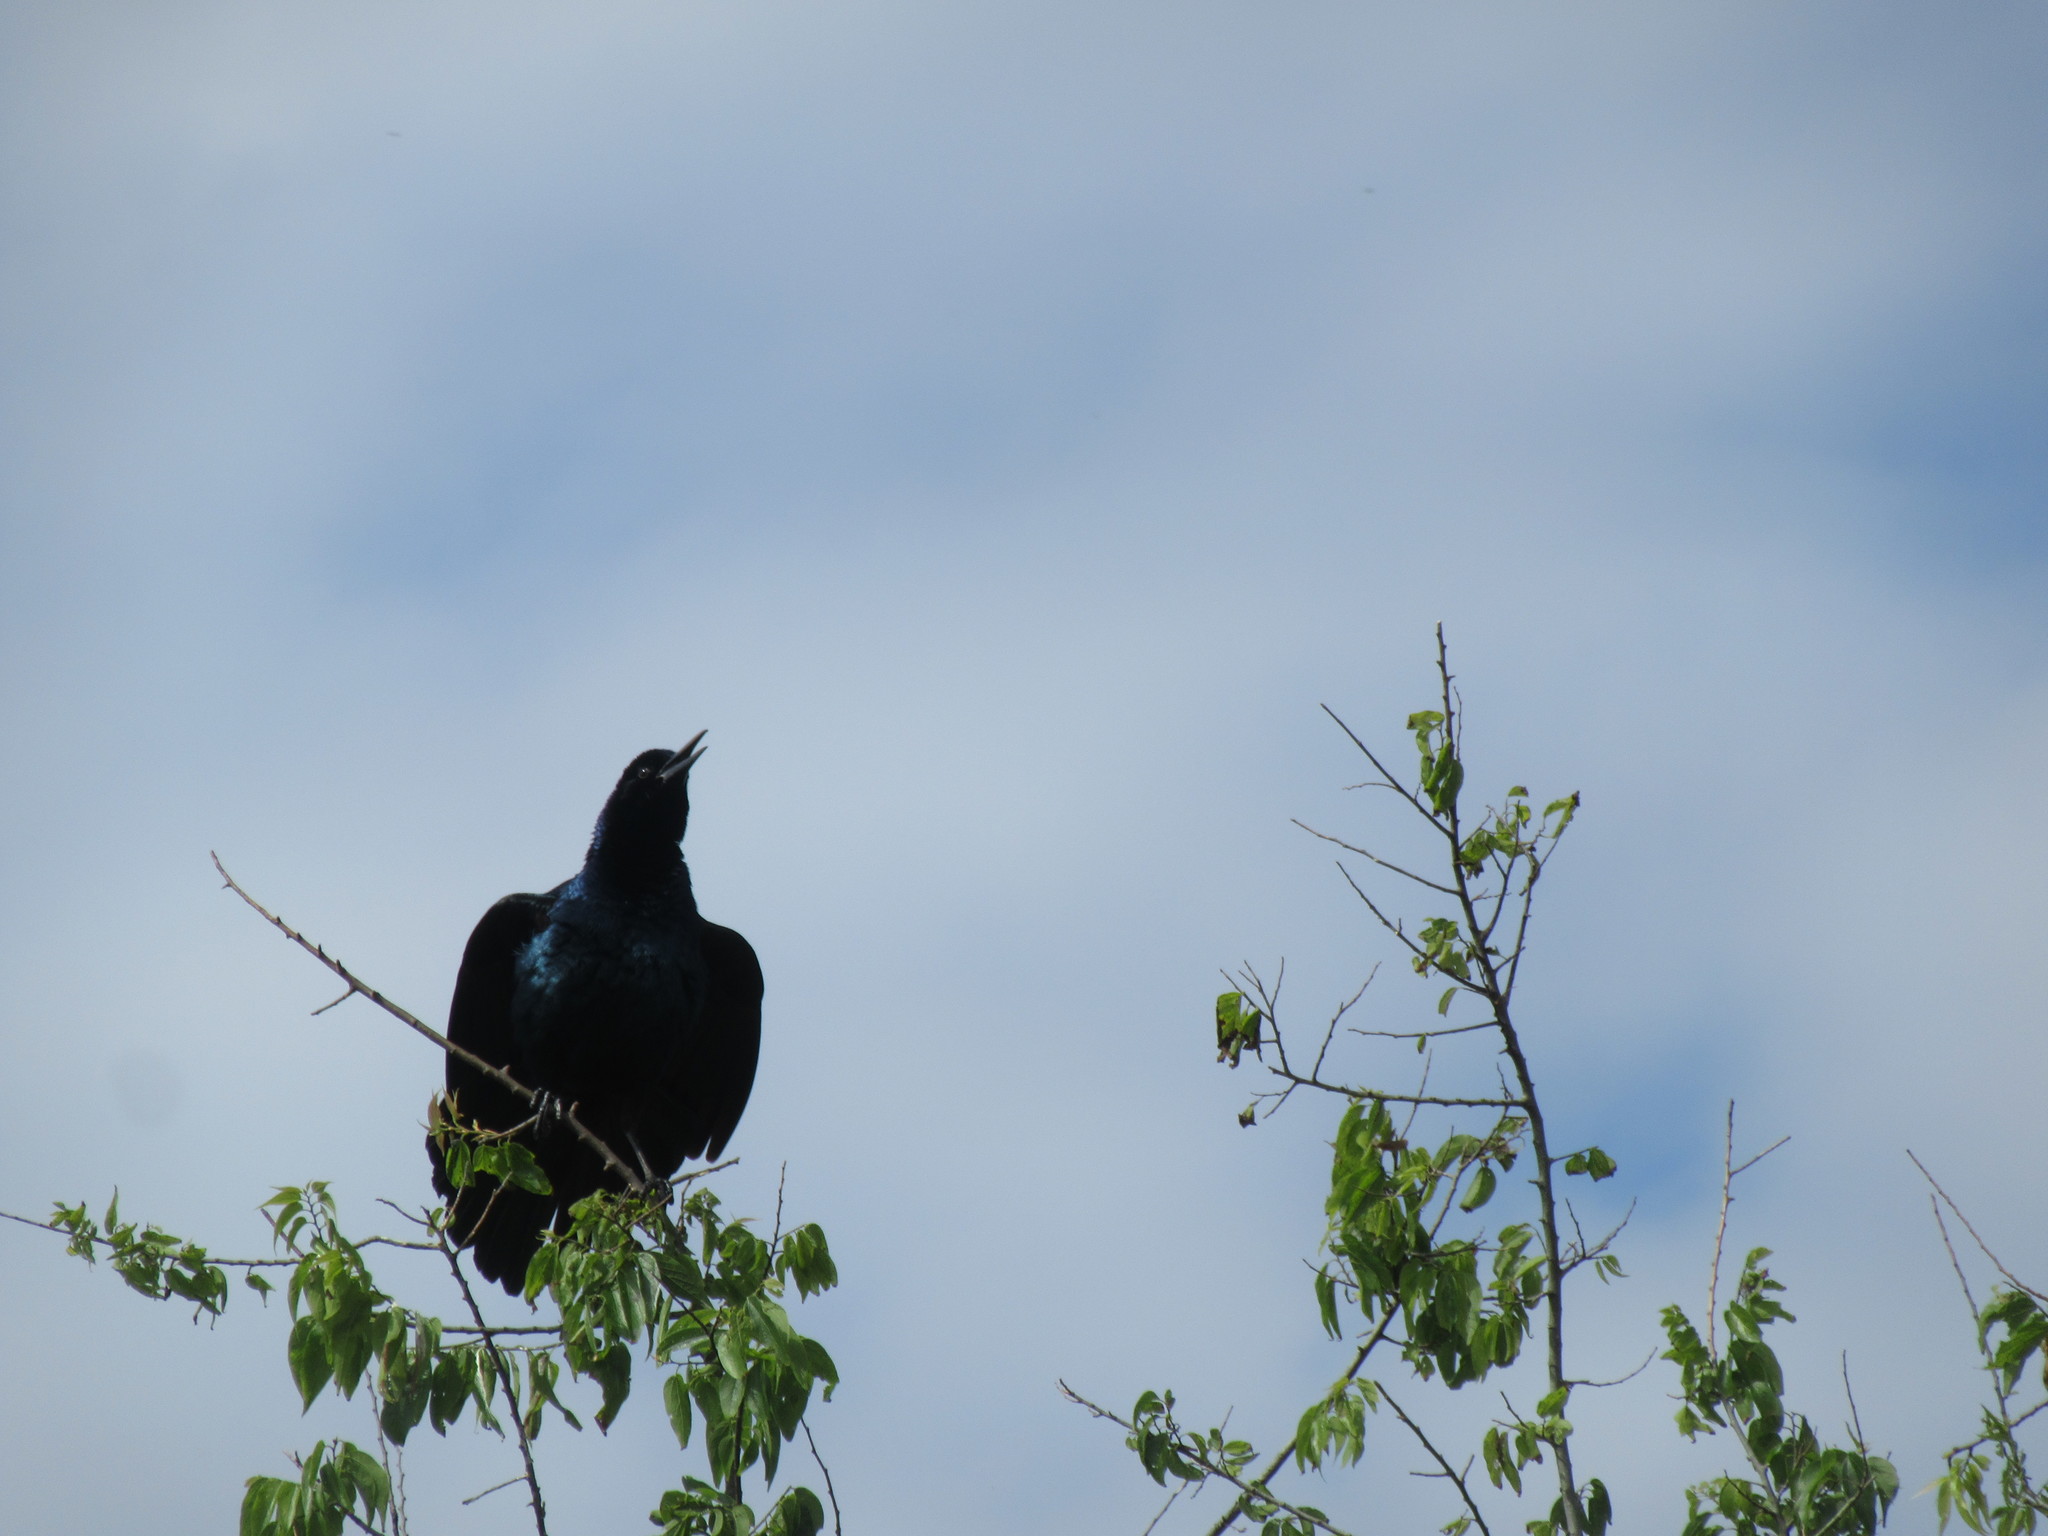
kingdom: Animalia
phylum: Chordata
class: Aves
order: Passeriformes
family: Icteridae
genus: Quiscalus
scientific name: Quiscalus major
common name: Boat-tailed grackle
